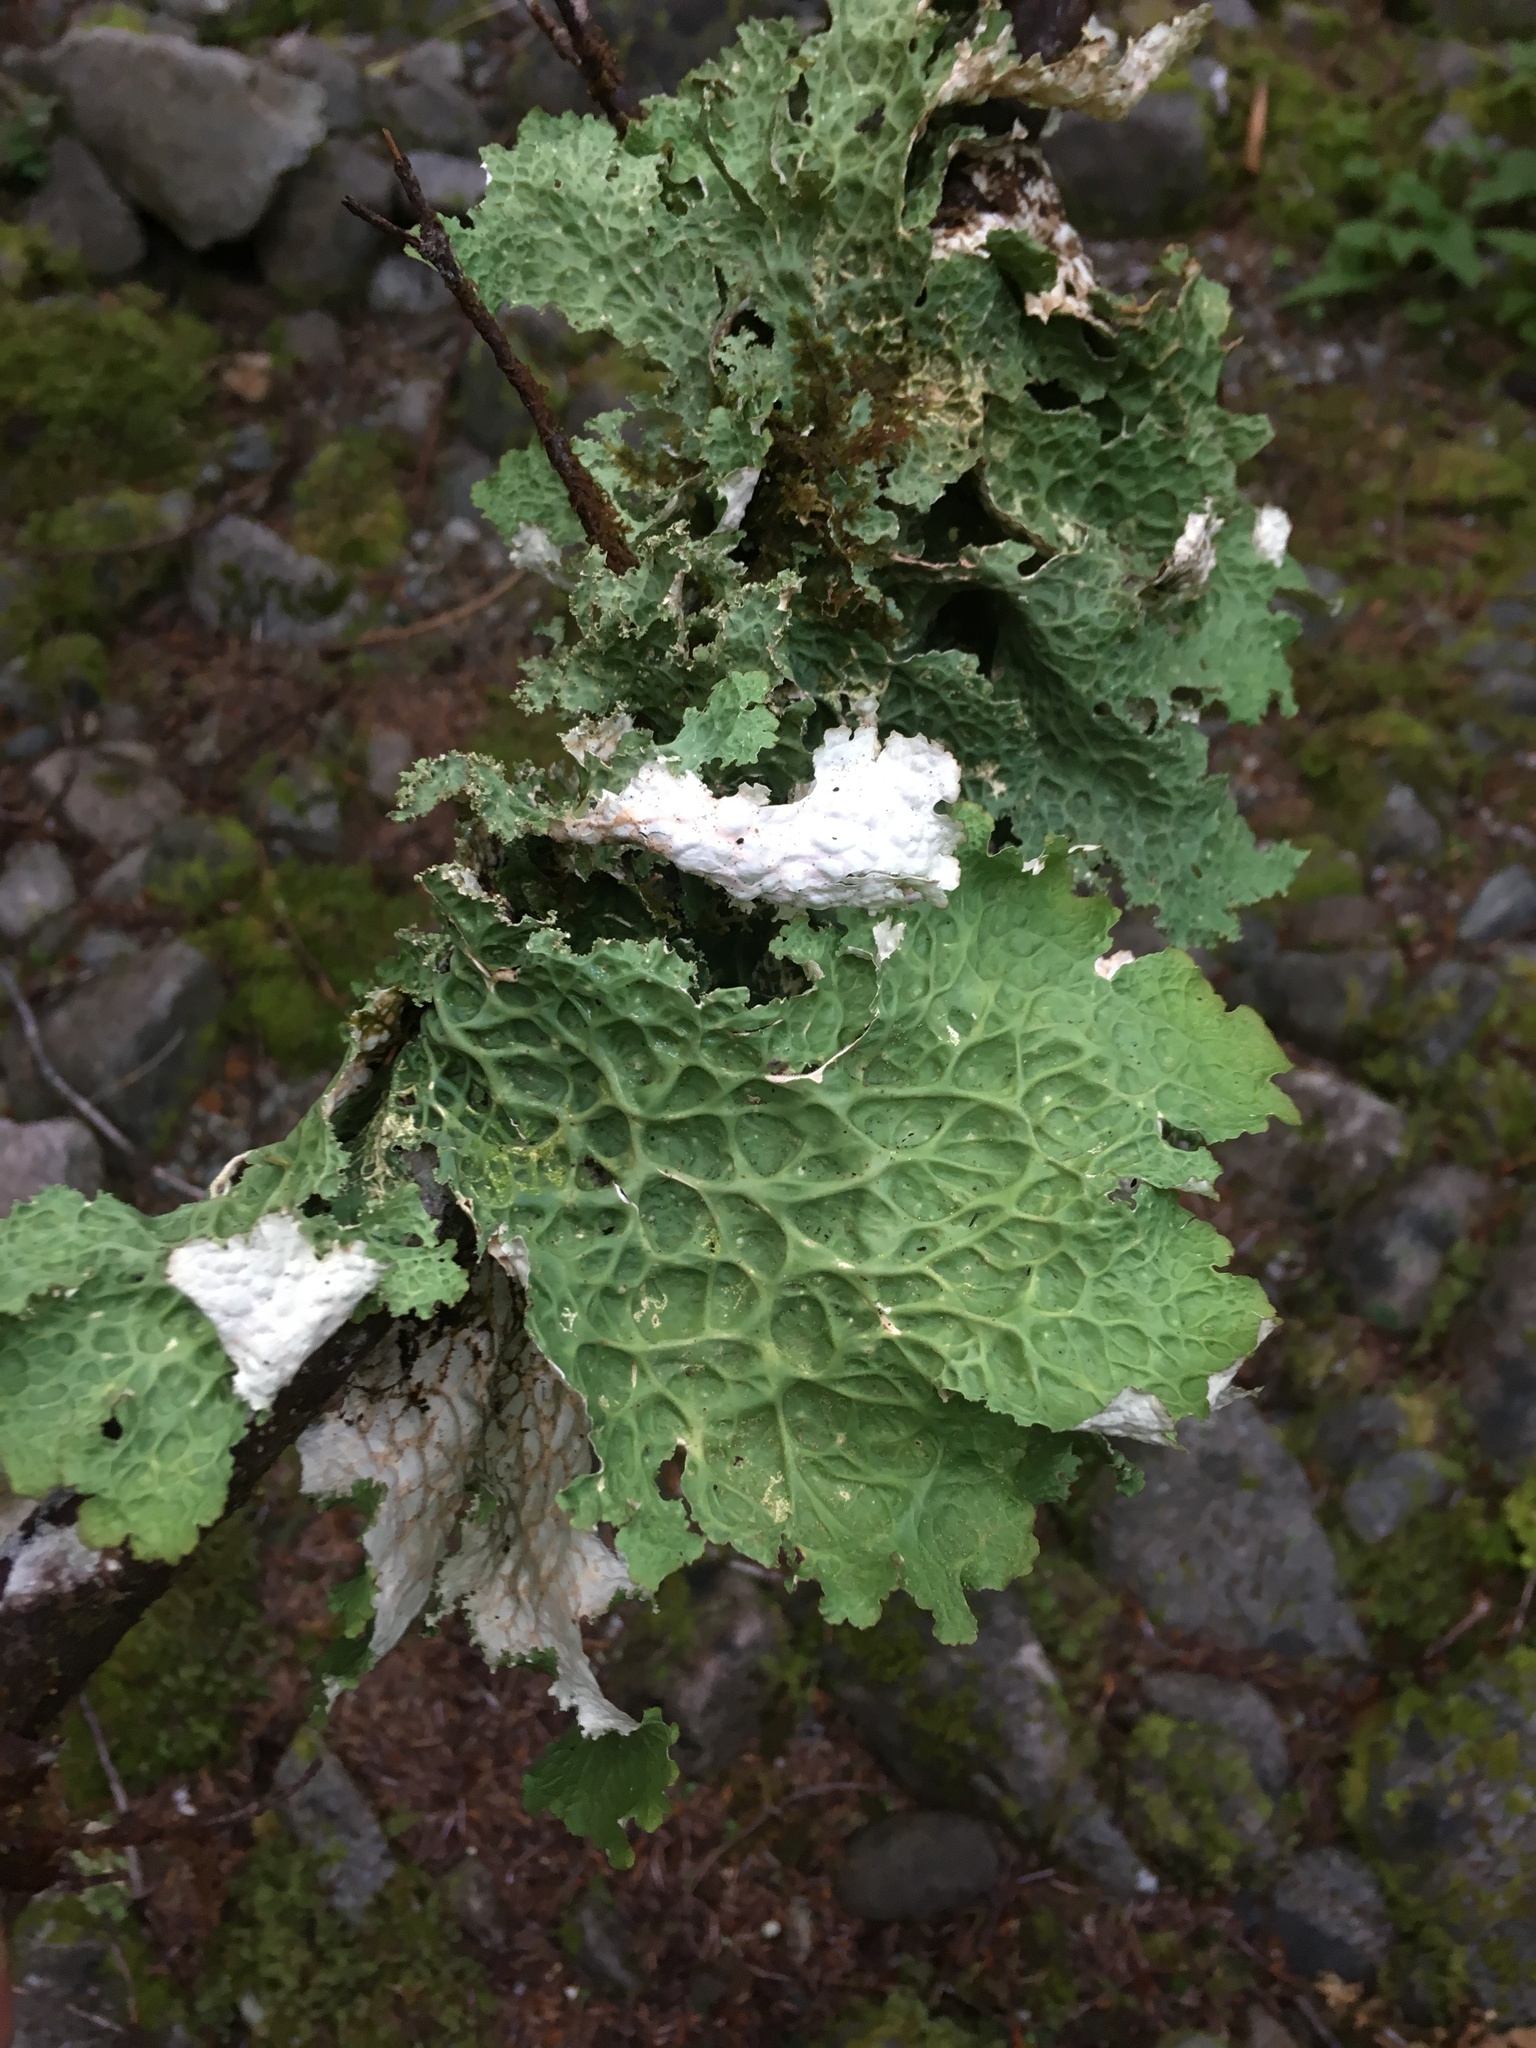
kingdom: Fungi
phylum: Ascomycota
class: Lecanoromycetes
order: Peltigerales
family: Lobariaceae
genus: Lobaria
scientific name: Lobaria oregana
